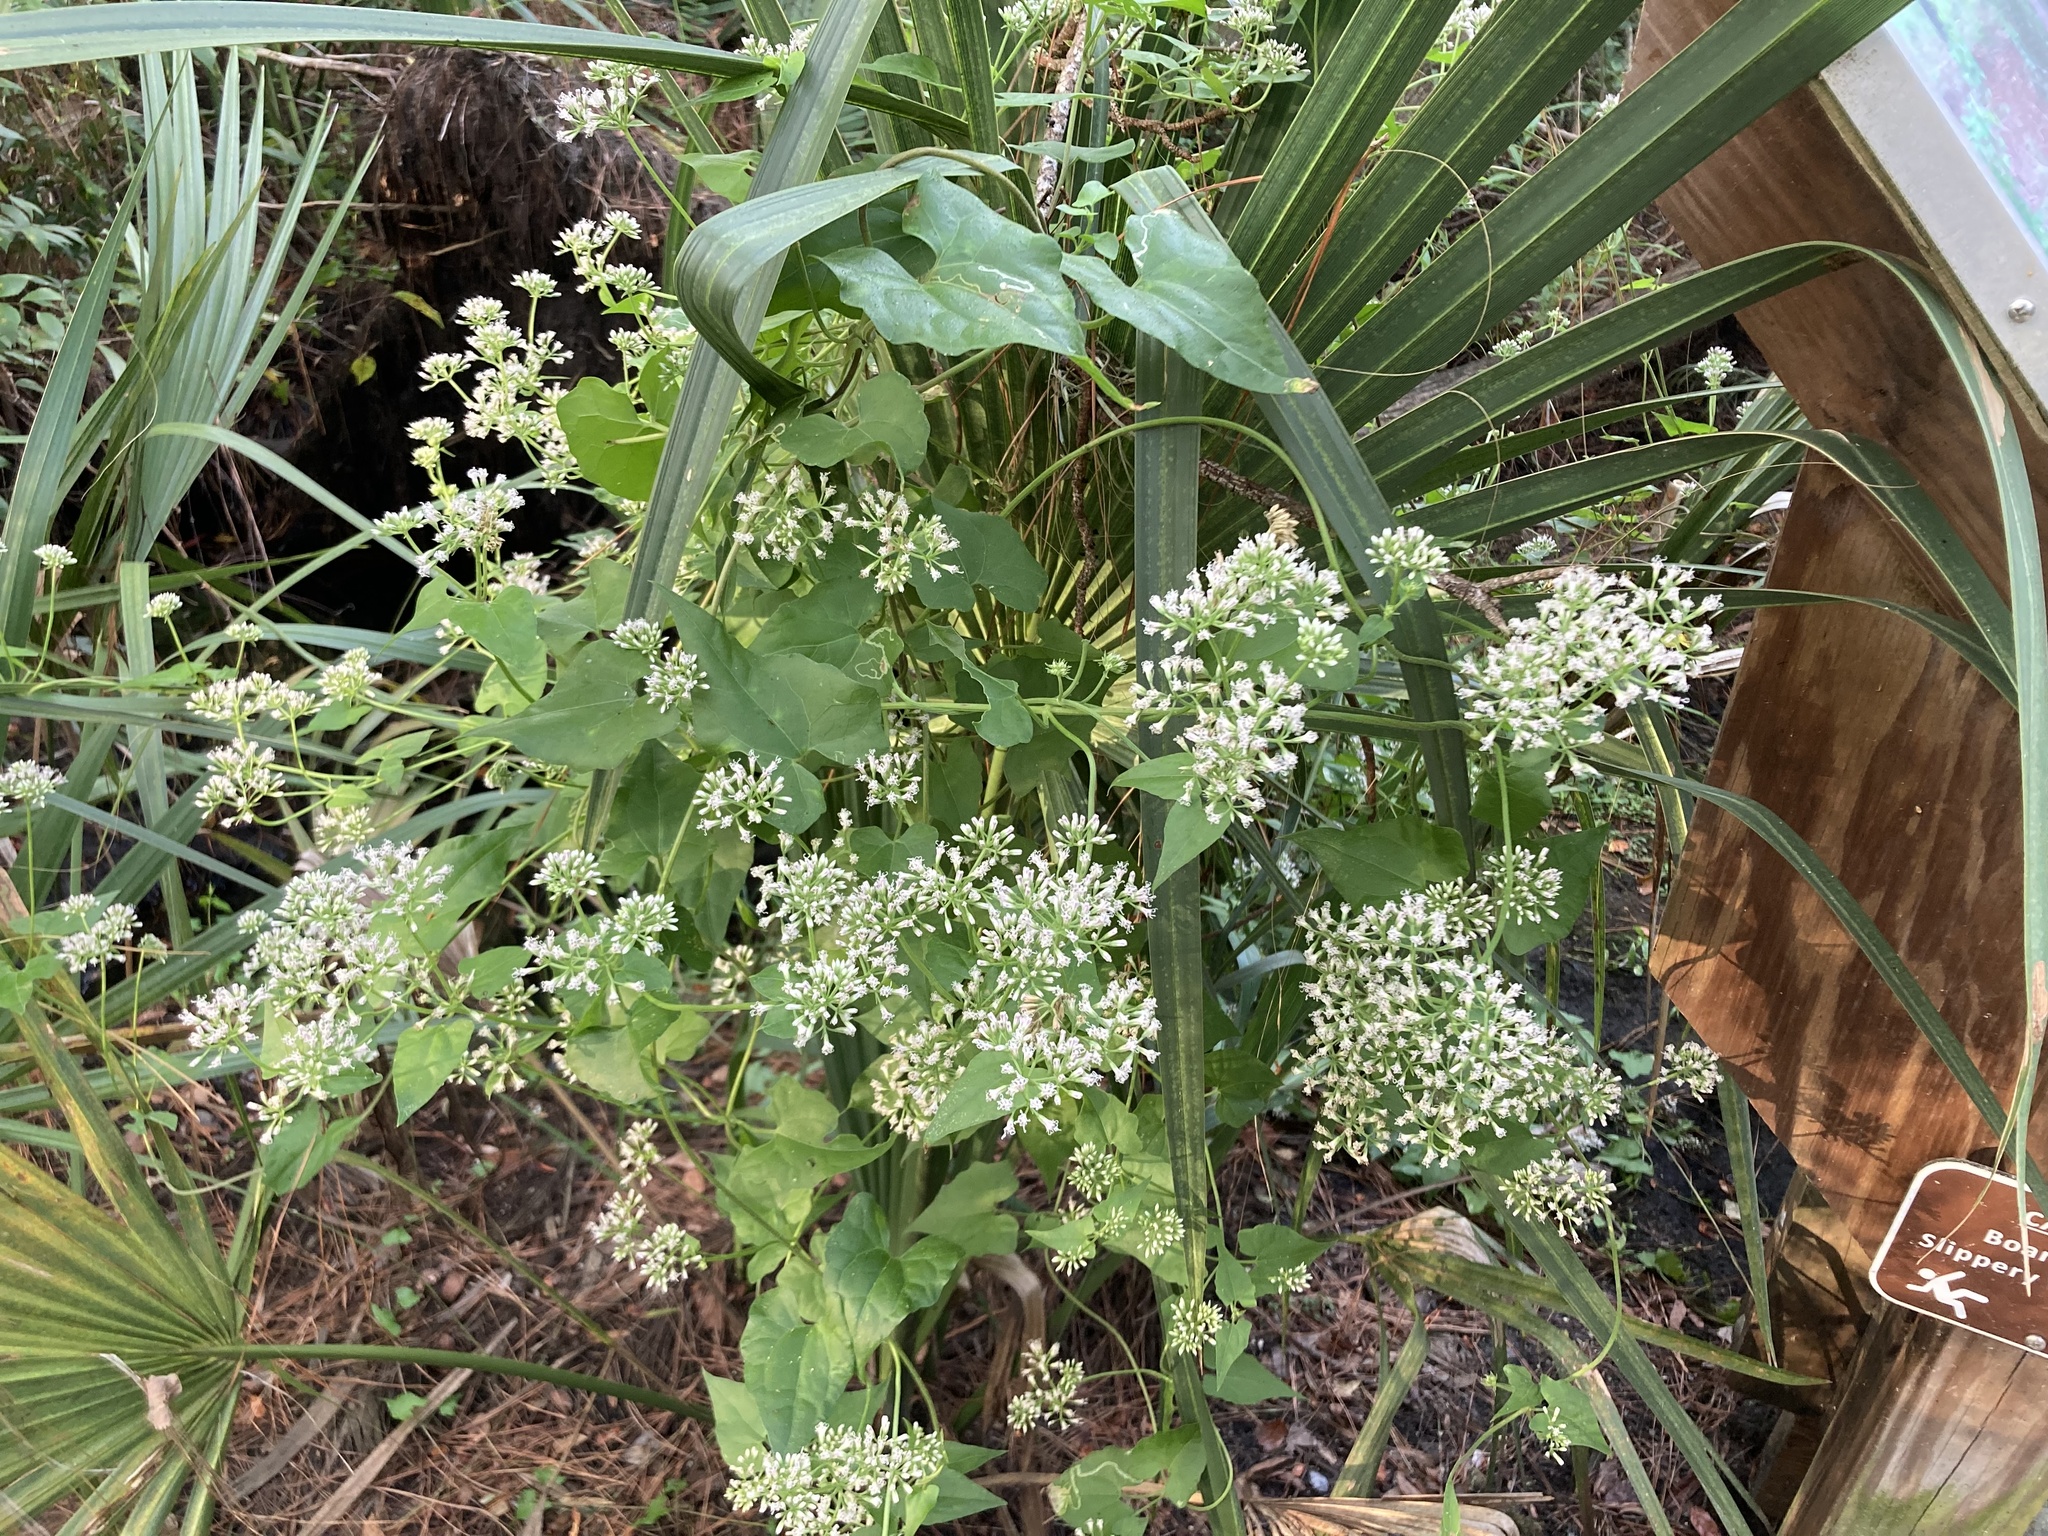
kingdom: Plantae
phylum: Tracheophyta
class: Magnoliopsida
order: Asterales
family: Asteraceae
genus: Mikania
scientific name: Mikania scandens
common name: Climbing hempvine
